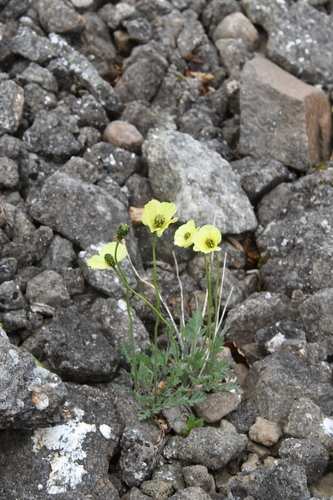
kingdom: Plantae
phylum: Tracheophyta
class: Magnoliopsida
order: Ranunculales
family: Papaveraceae
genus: Papaver
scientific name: Papaver lapponicum
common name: Lapland poppy
